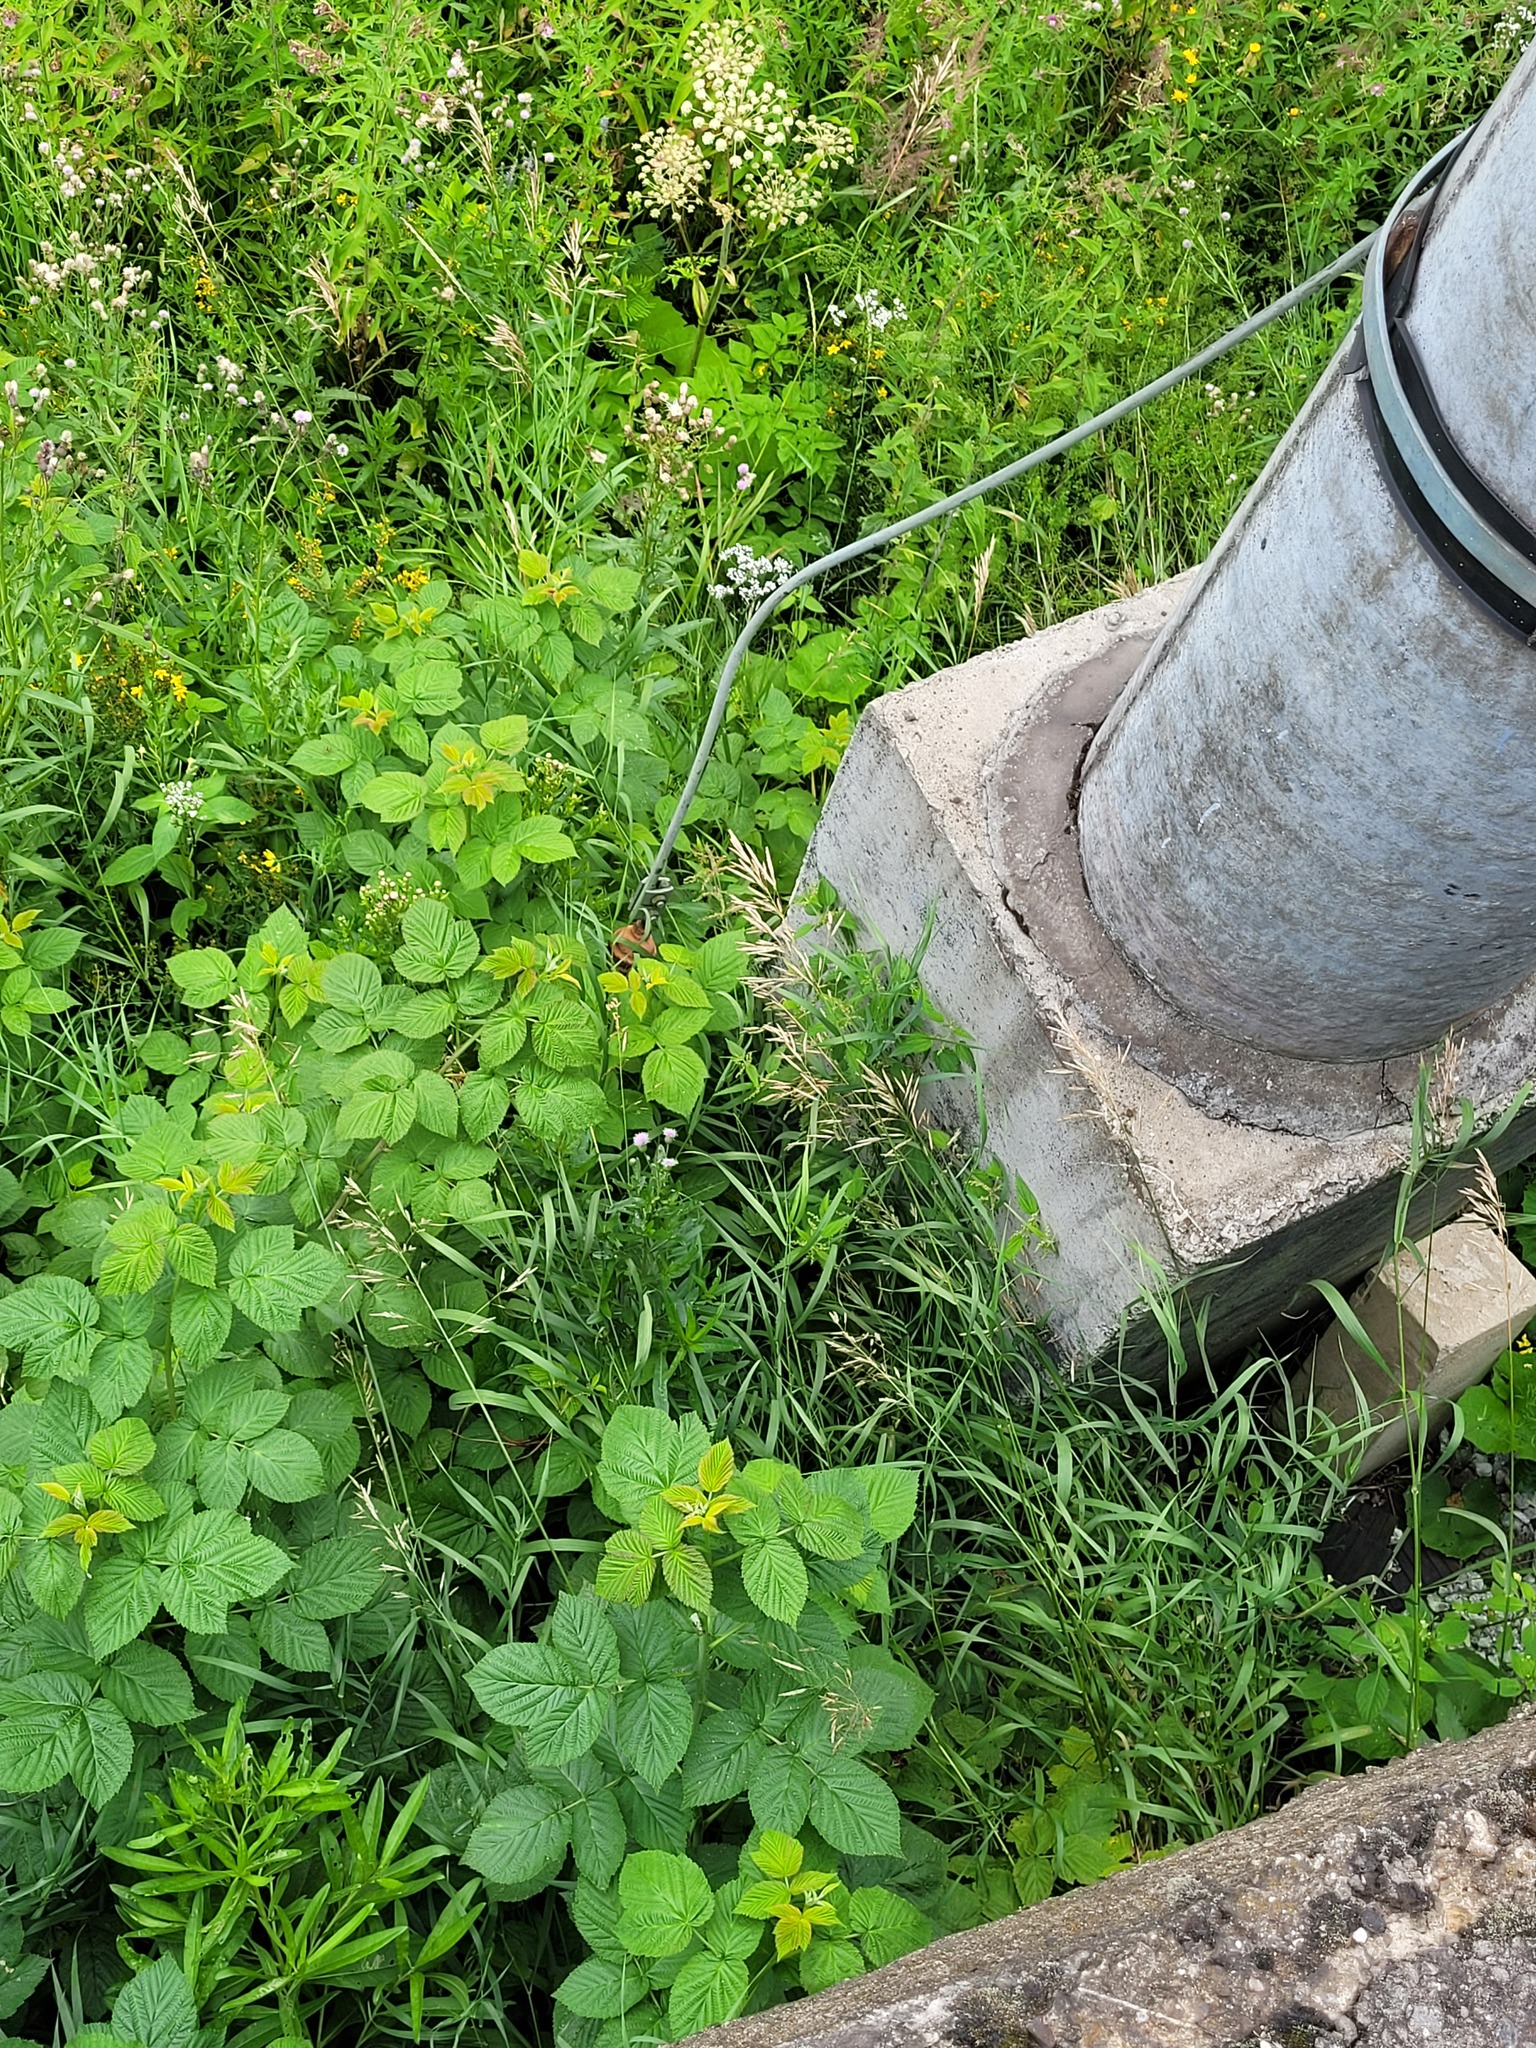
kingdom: Plantae
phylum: Tracheophyta
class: Liliopsida
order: Poales
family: Poaceae
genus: Bromus
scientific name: Bromus inermis
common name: Smooth brome
